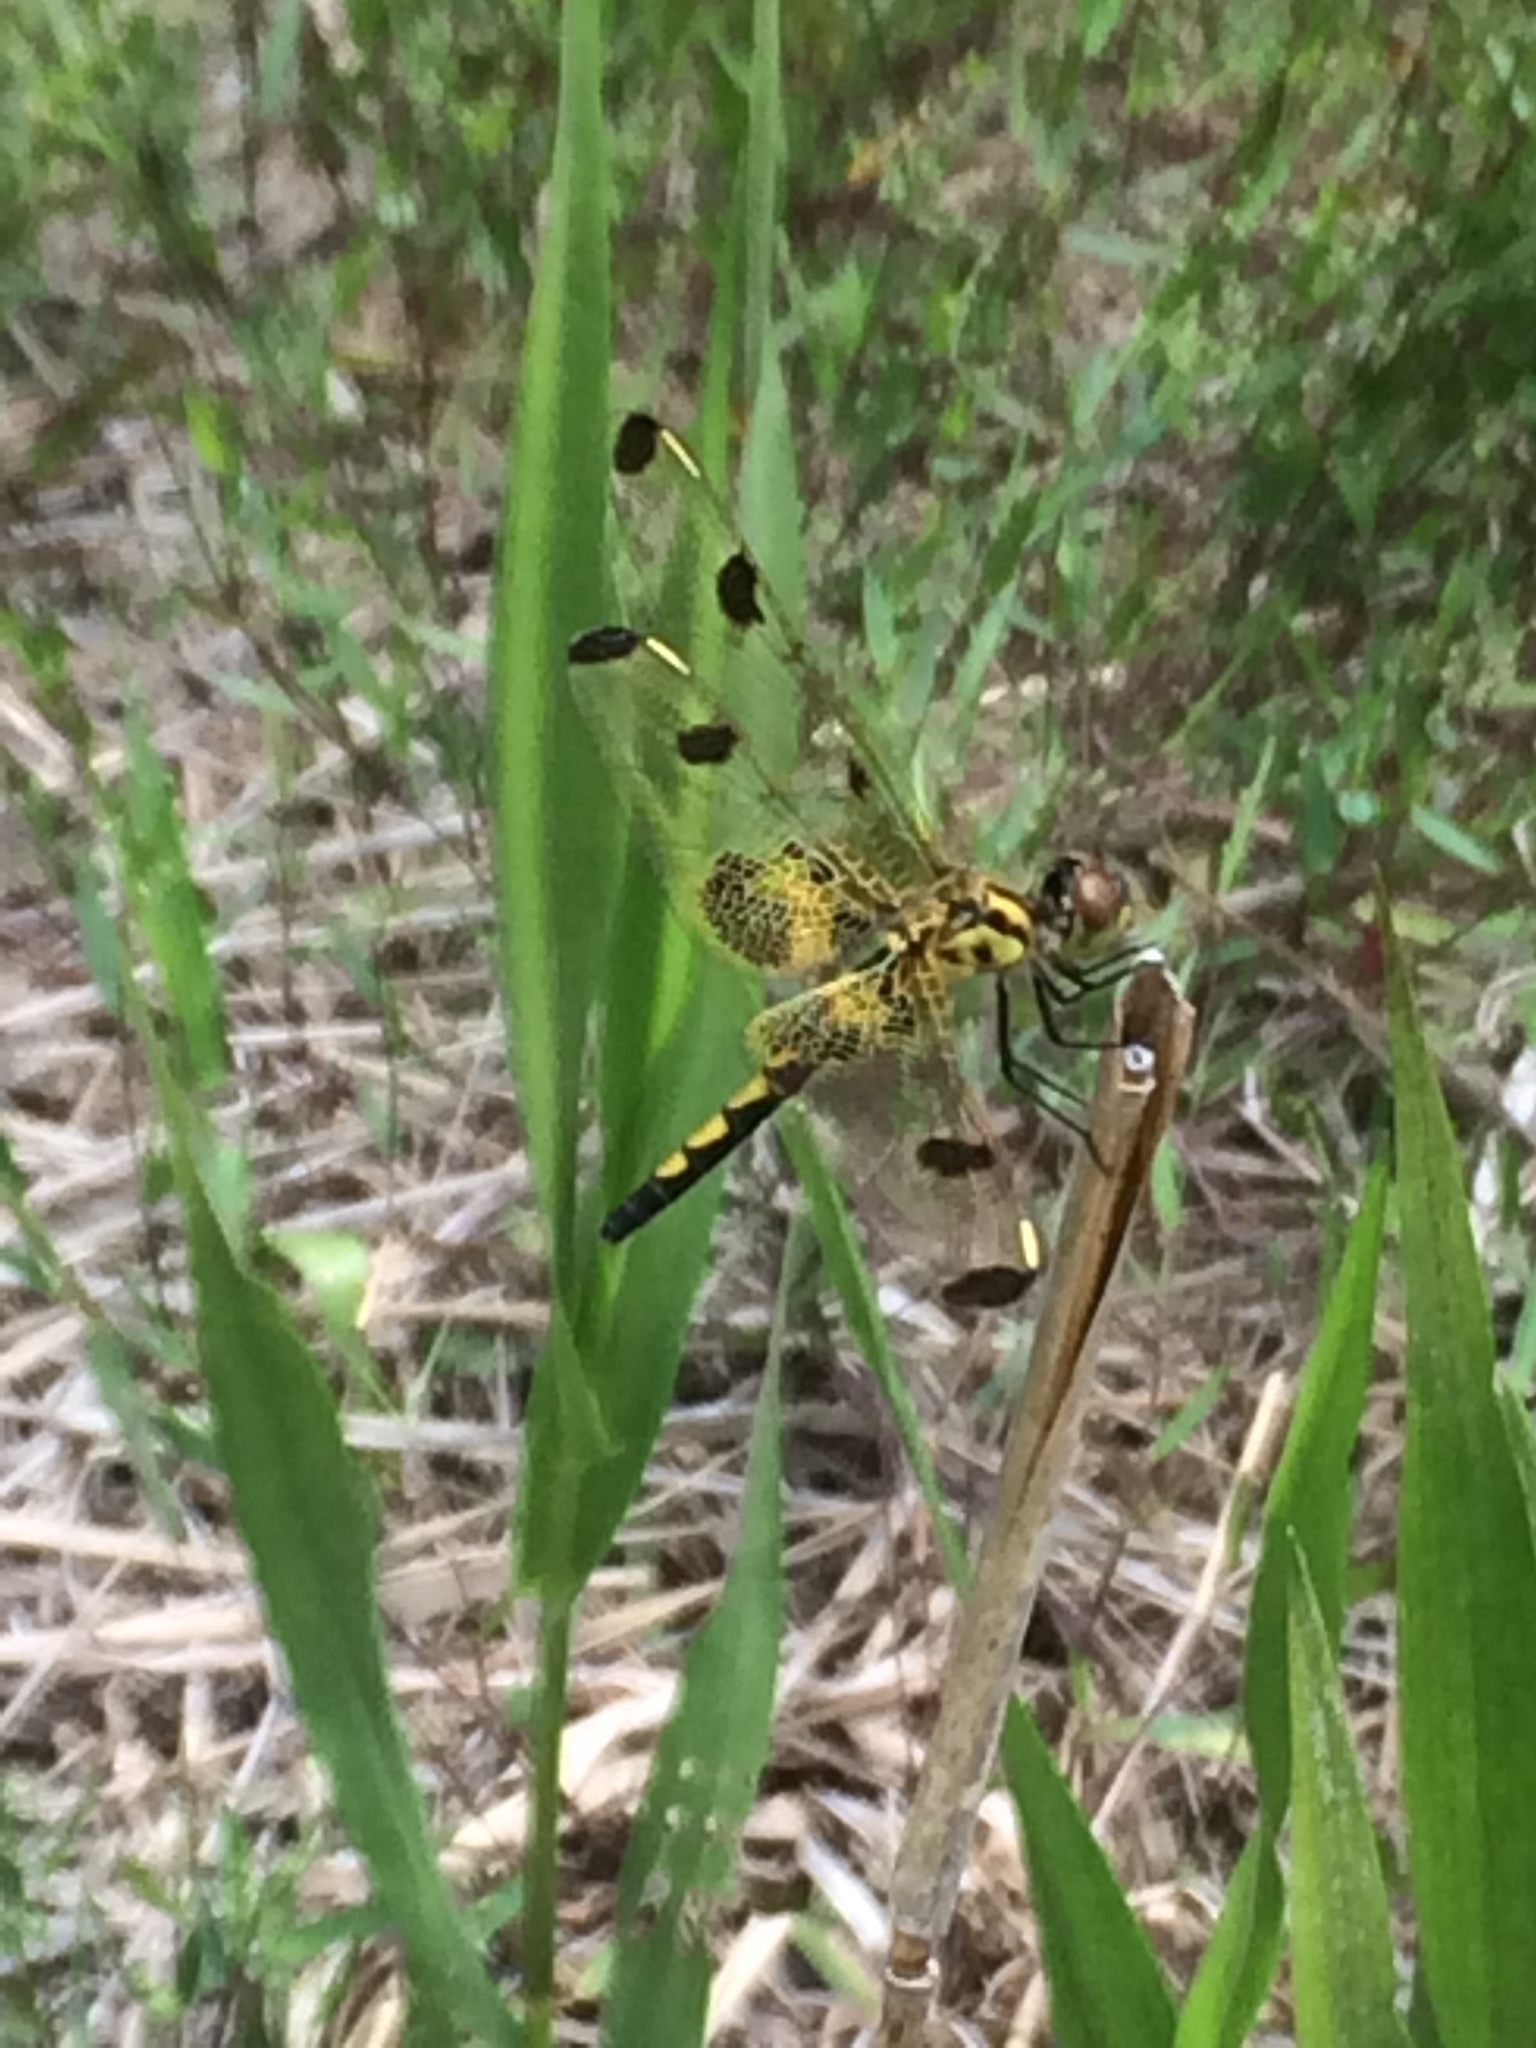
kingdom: Animalia
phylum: Arthropoda
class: Insecta
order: Odonata
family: Libellulidae
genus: Celithemis
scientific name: Celithemis elisa
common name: Calico pennant
